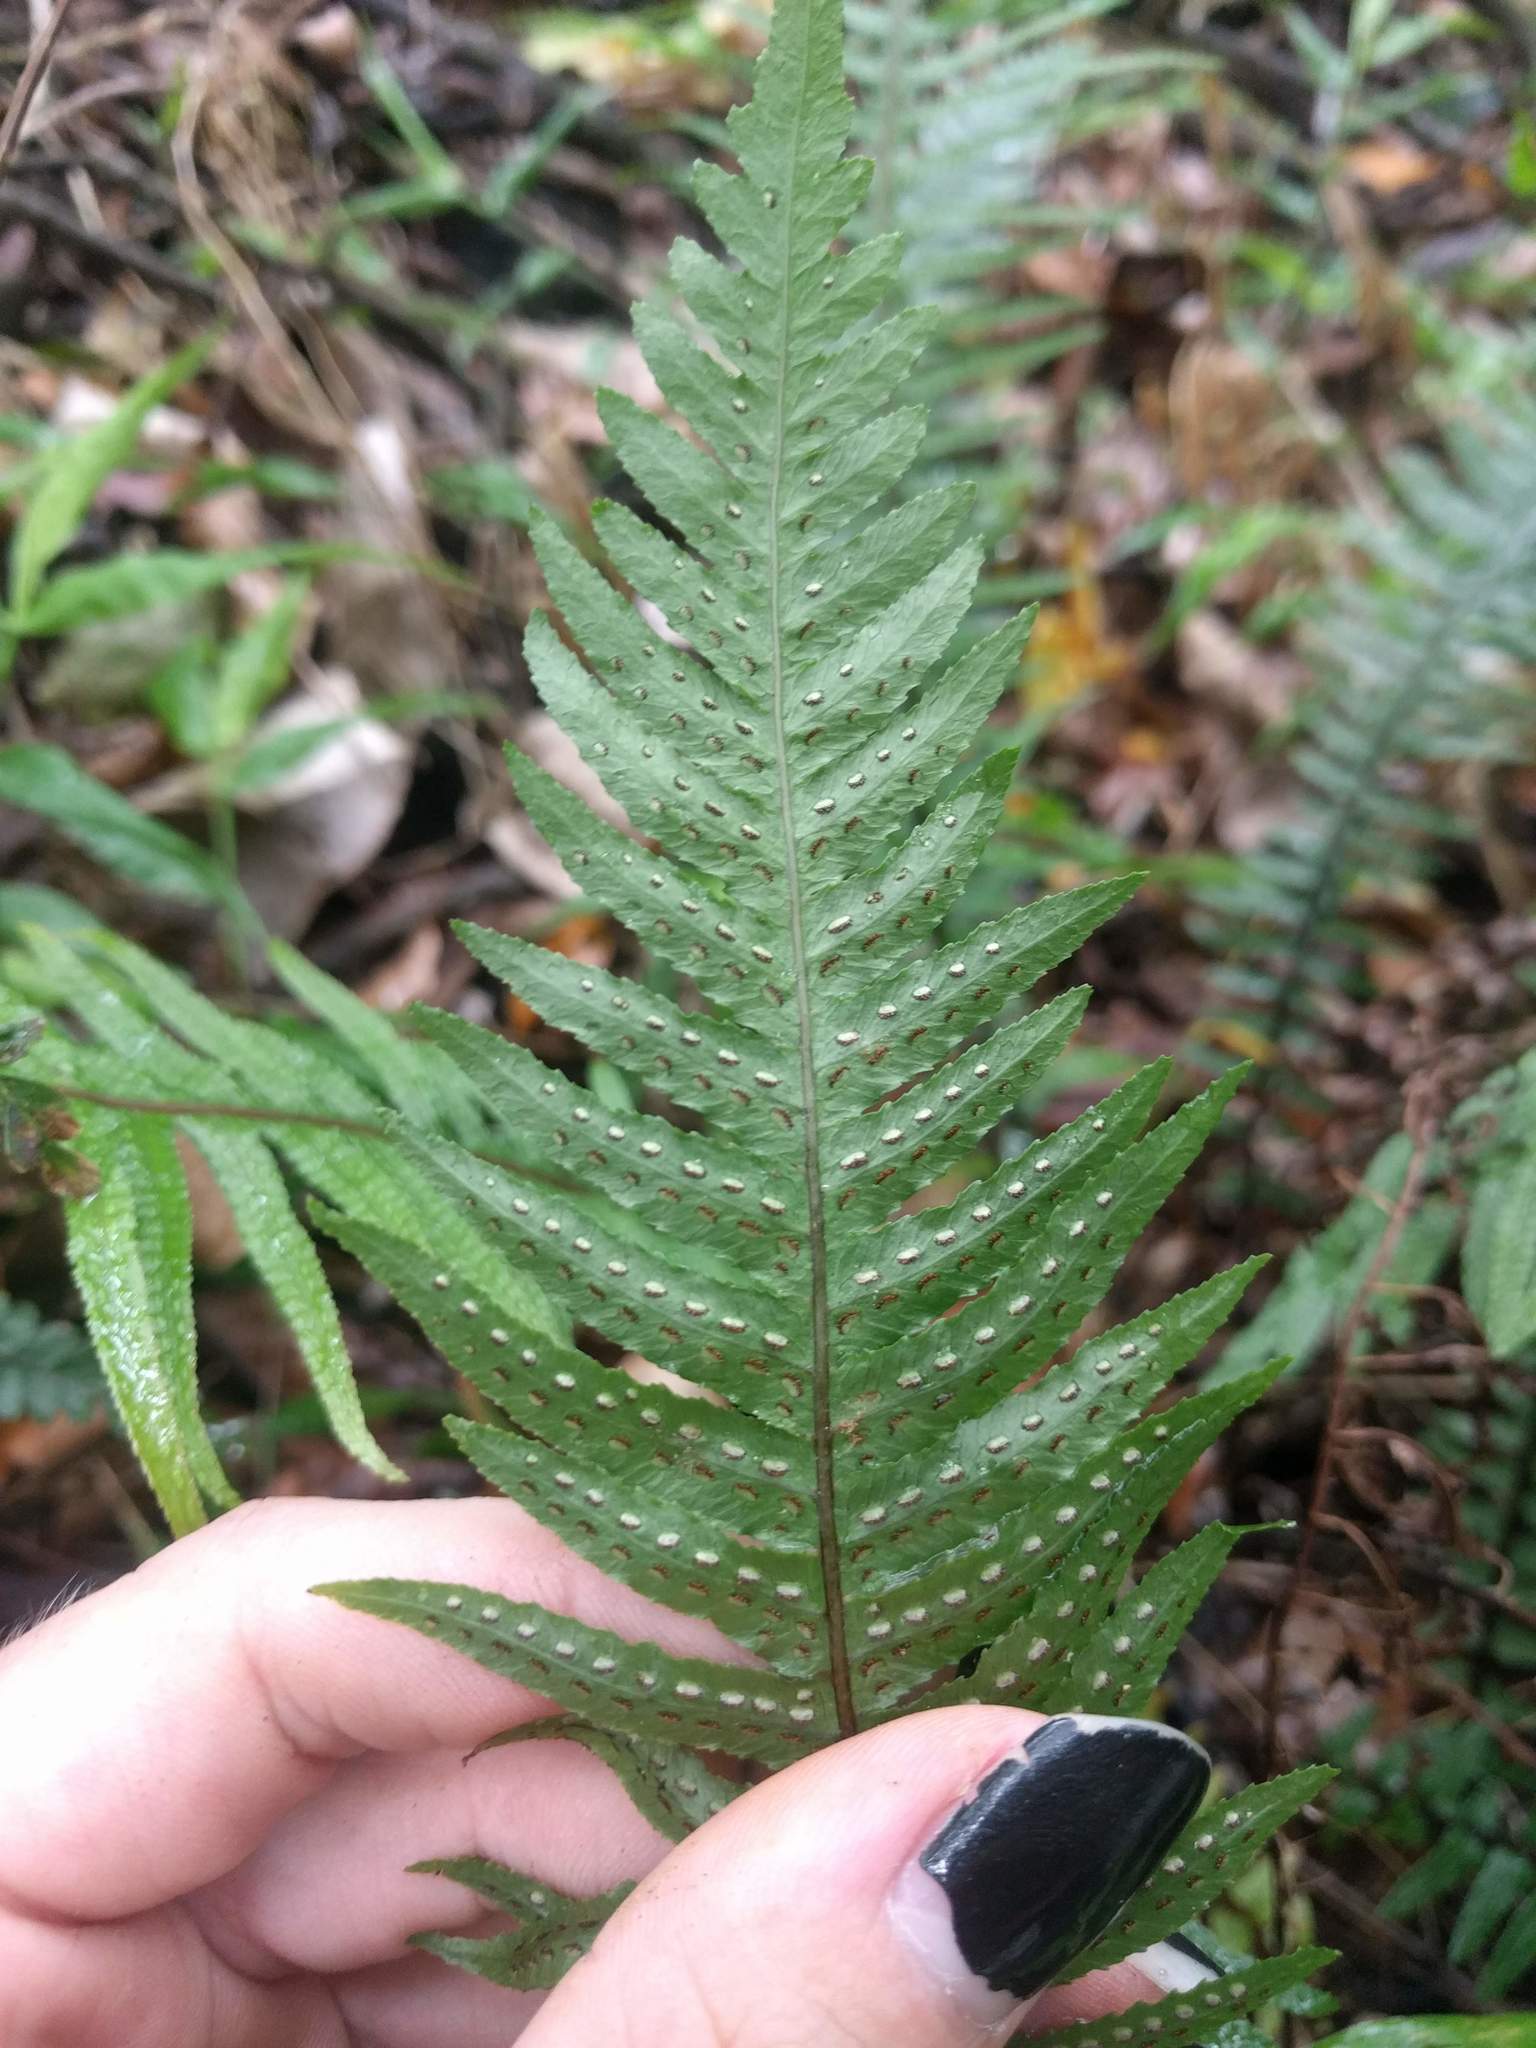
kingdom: Plantae
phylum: Tracheophyta
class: Polypodiopsida
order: Polypodiales
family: Blechnaceae
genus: Doodia
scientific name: Doodia kunthiana
